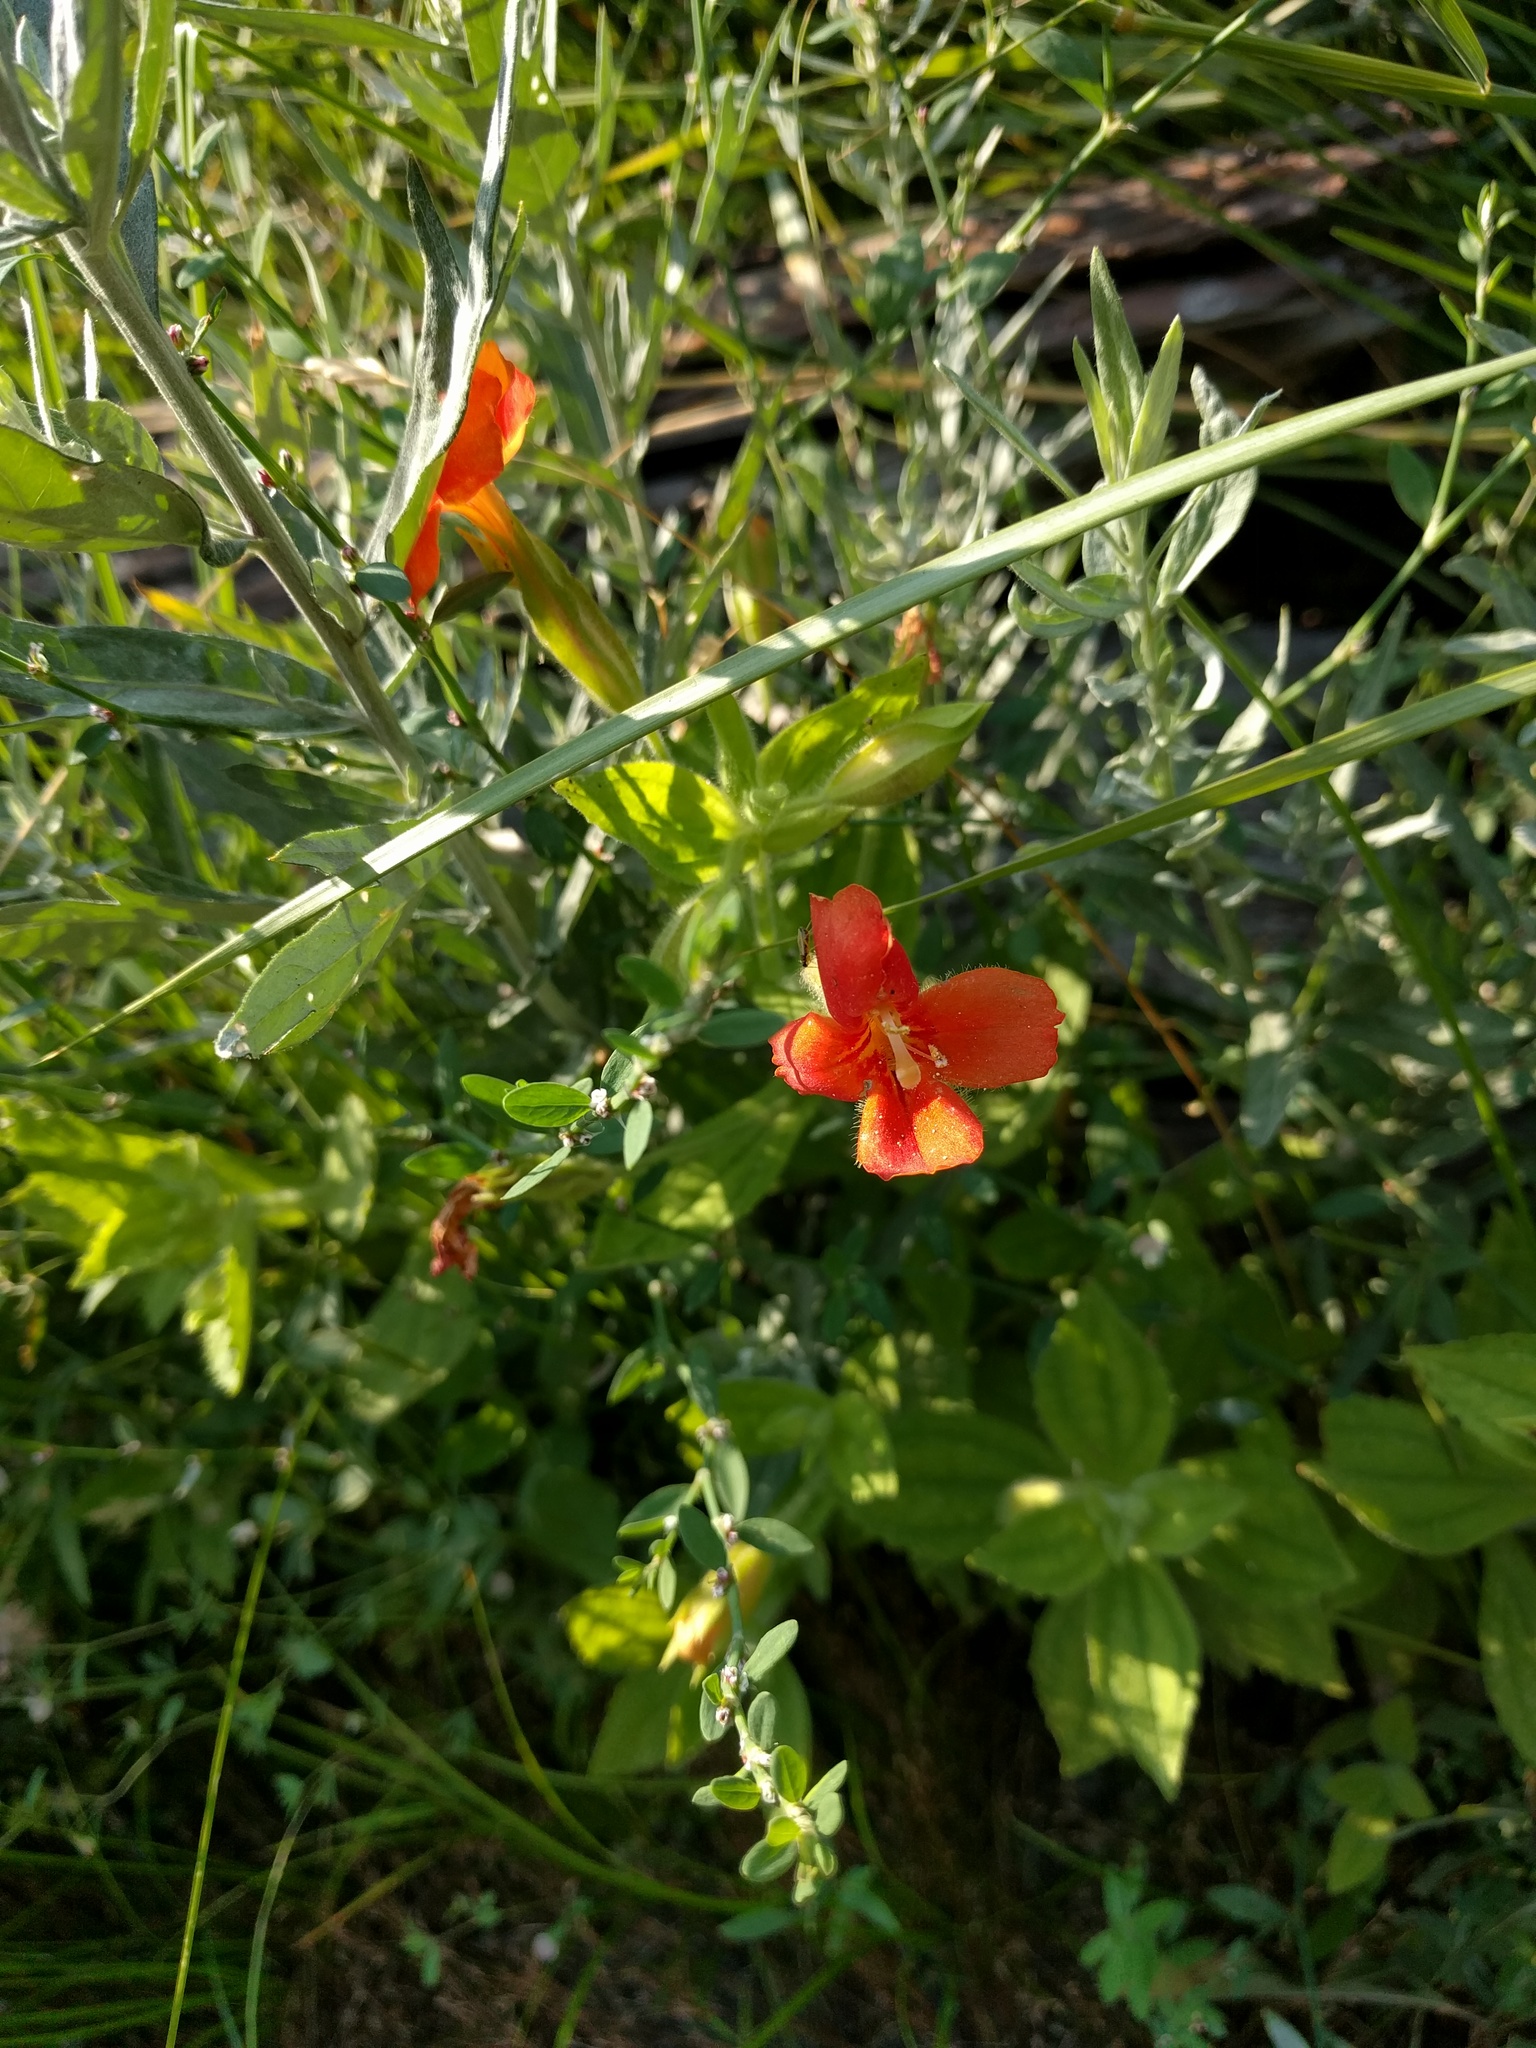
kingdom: Plantae
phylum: Tracheophyta
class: Magnoliopsida
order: Lamiales
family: Phrymaceae
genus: Erythranthe
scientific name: Erythranthe cardinalis
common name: Scarlet monkey-flower
